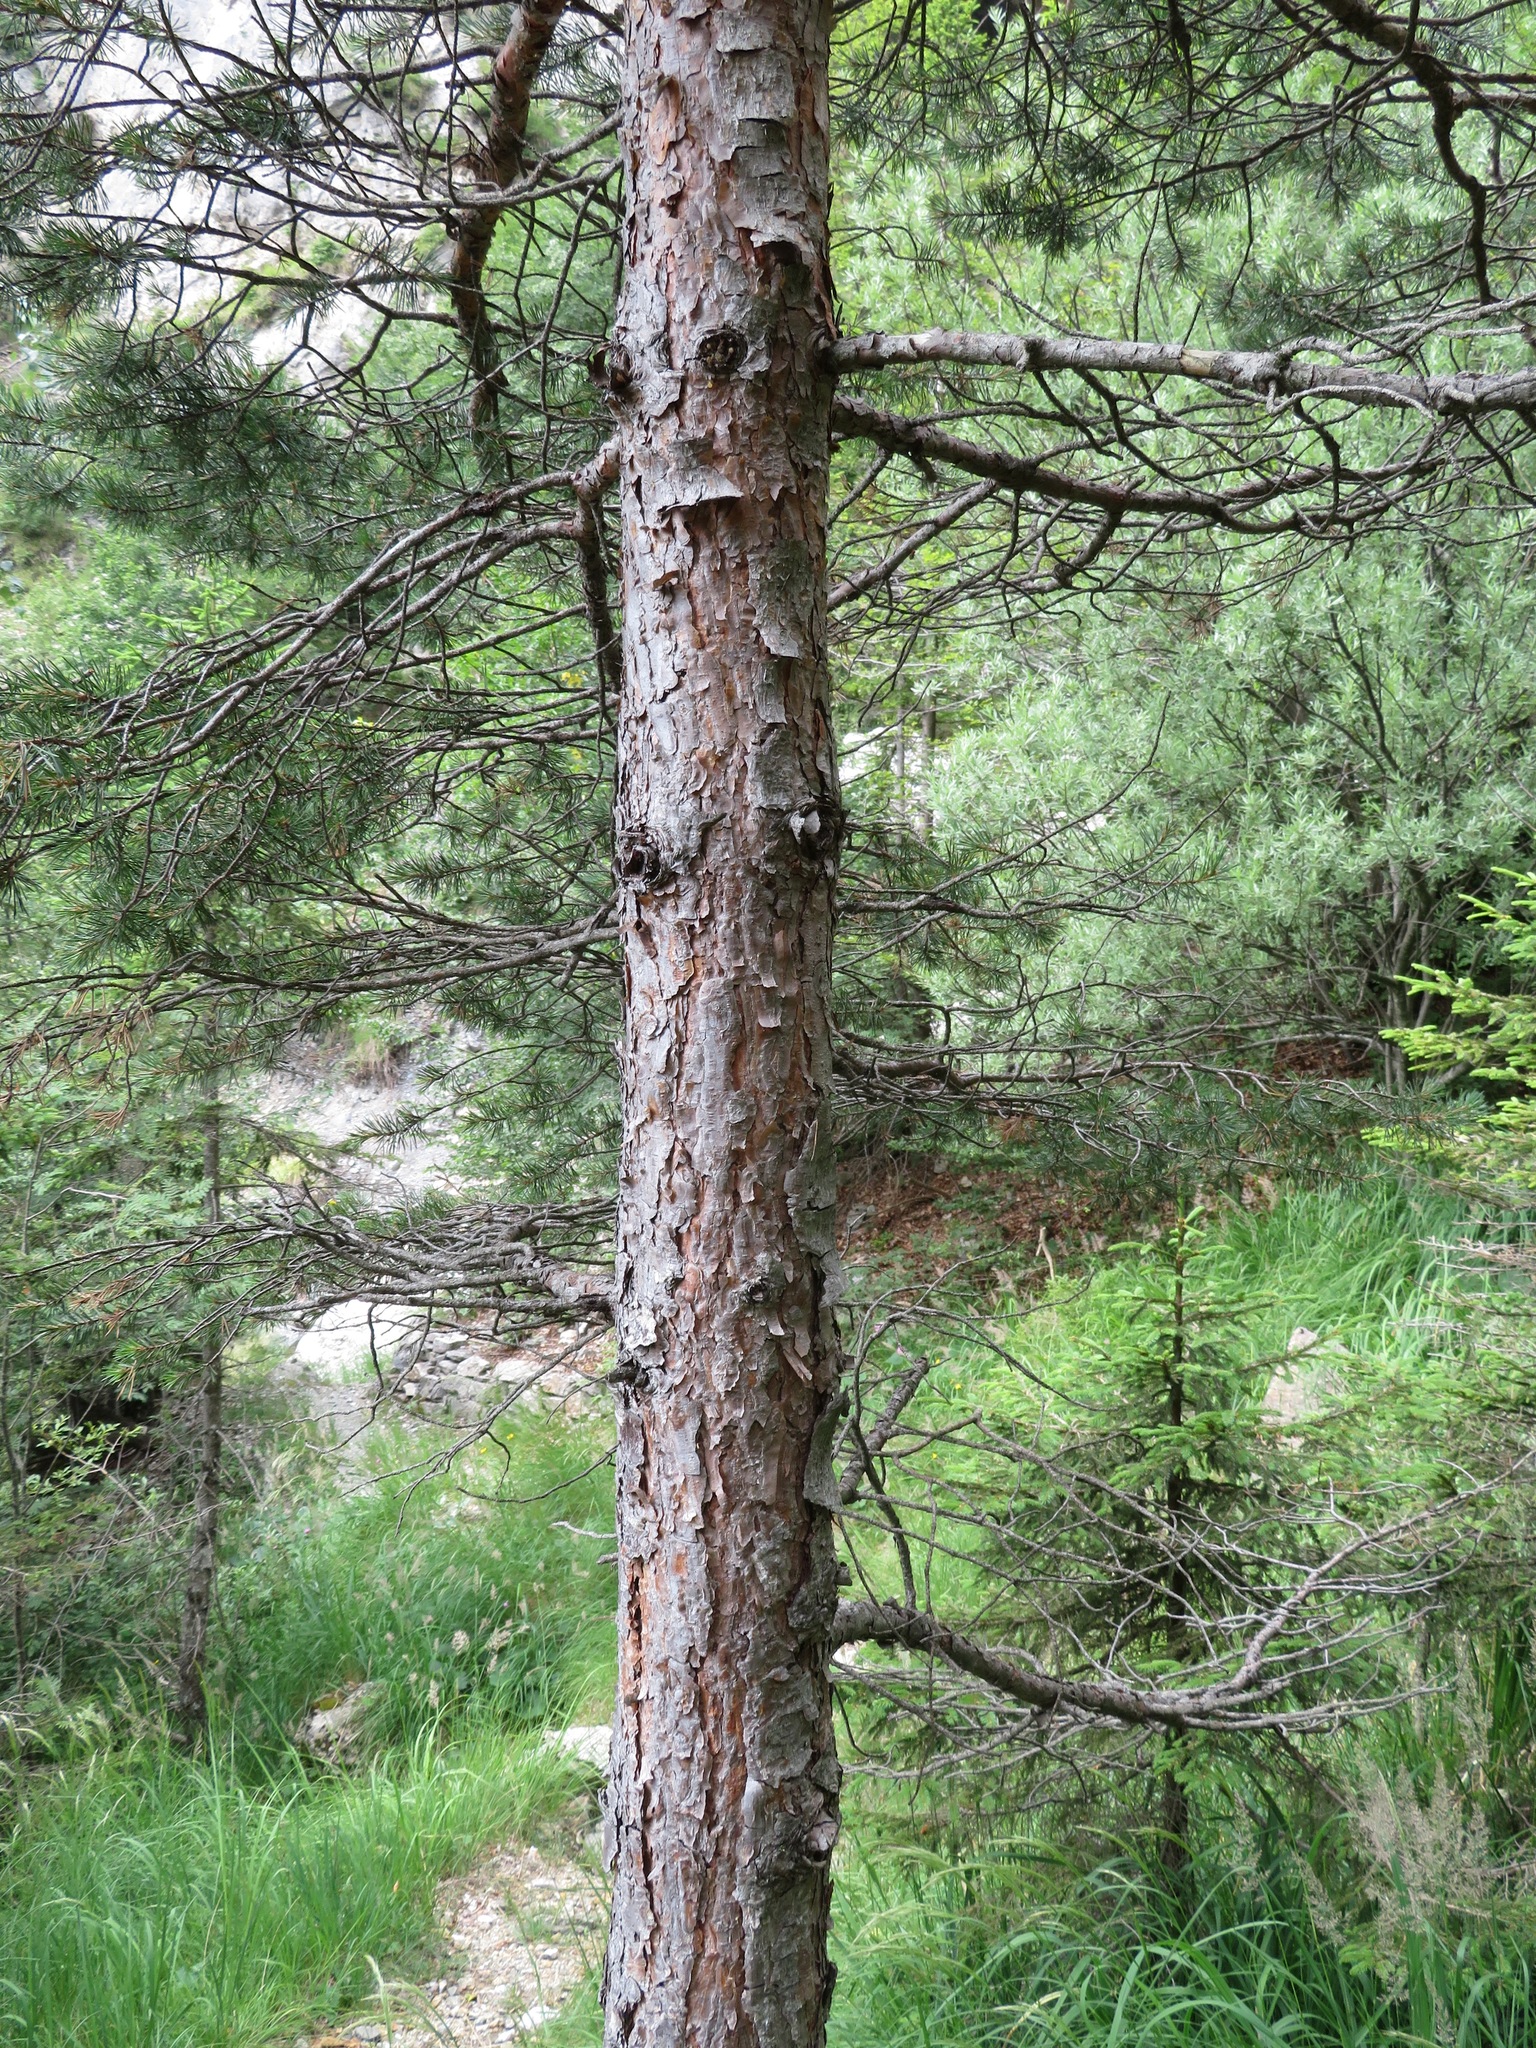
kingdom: Plantae
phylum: Tracheophyta
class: Pinopsida
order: Pinales
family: Pinaceae
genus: Pinus
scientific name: Pinus sylvestris
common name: Scots pine
